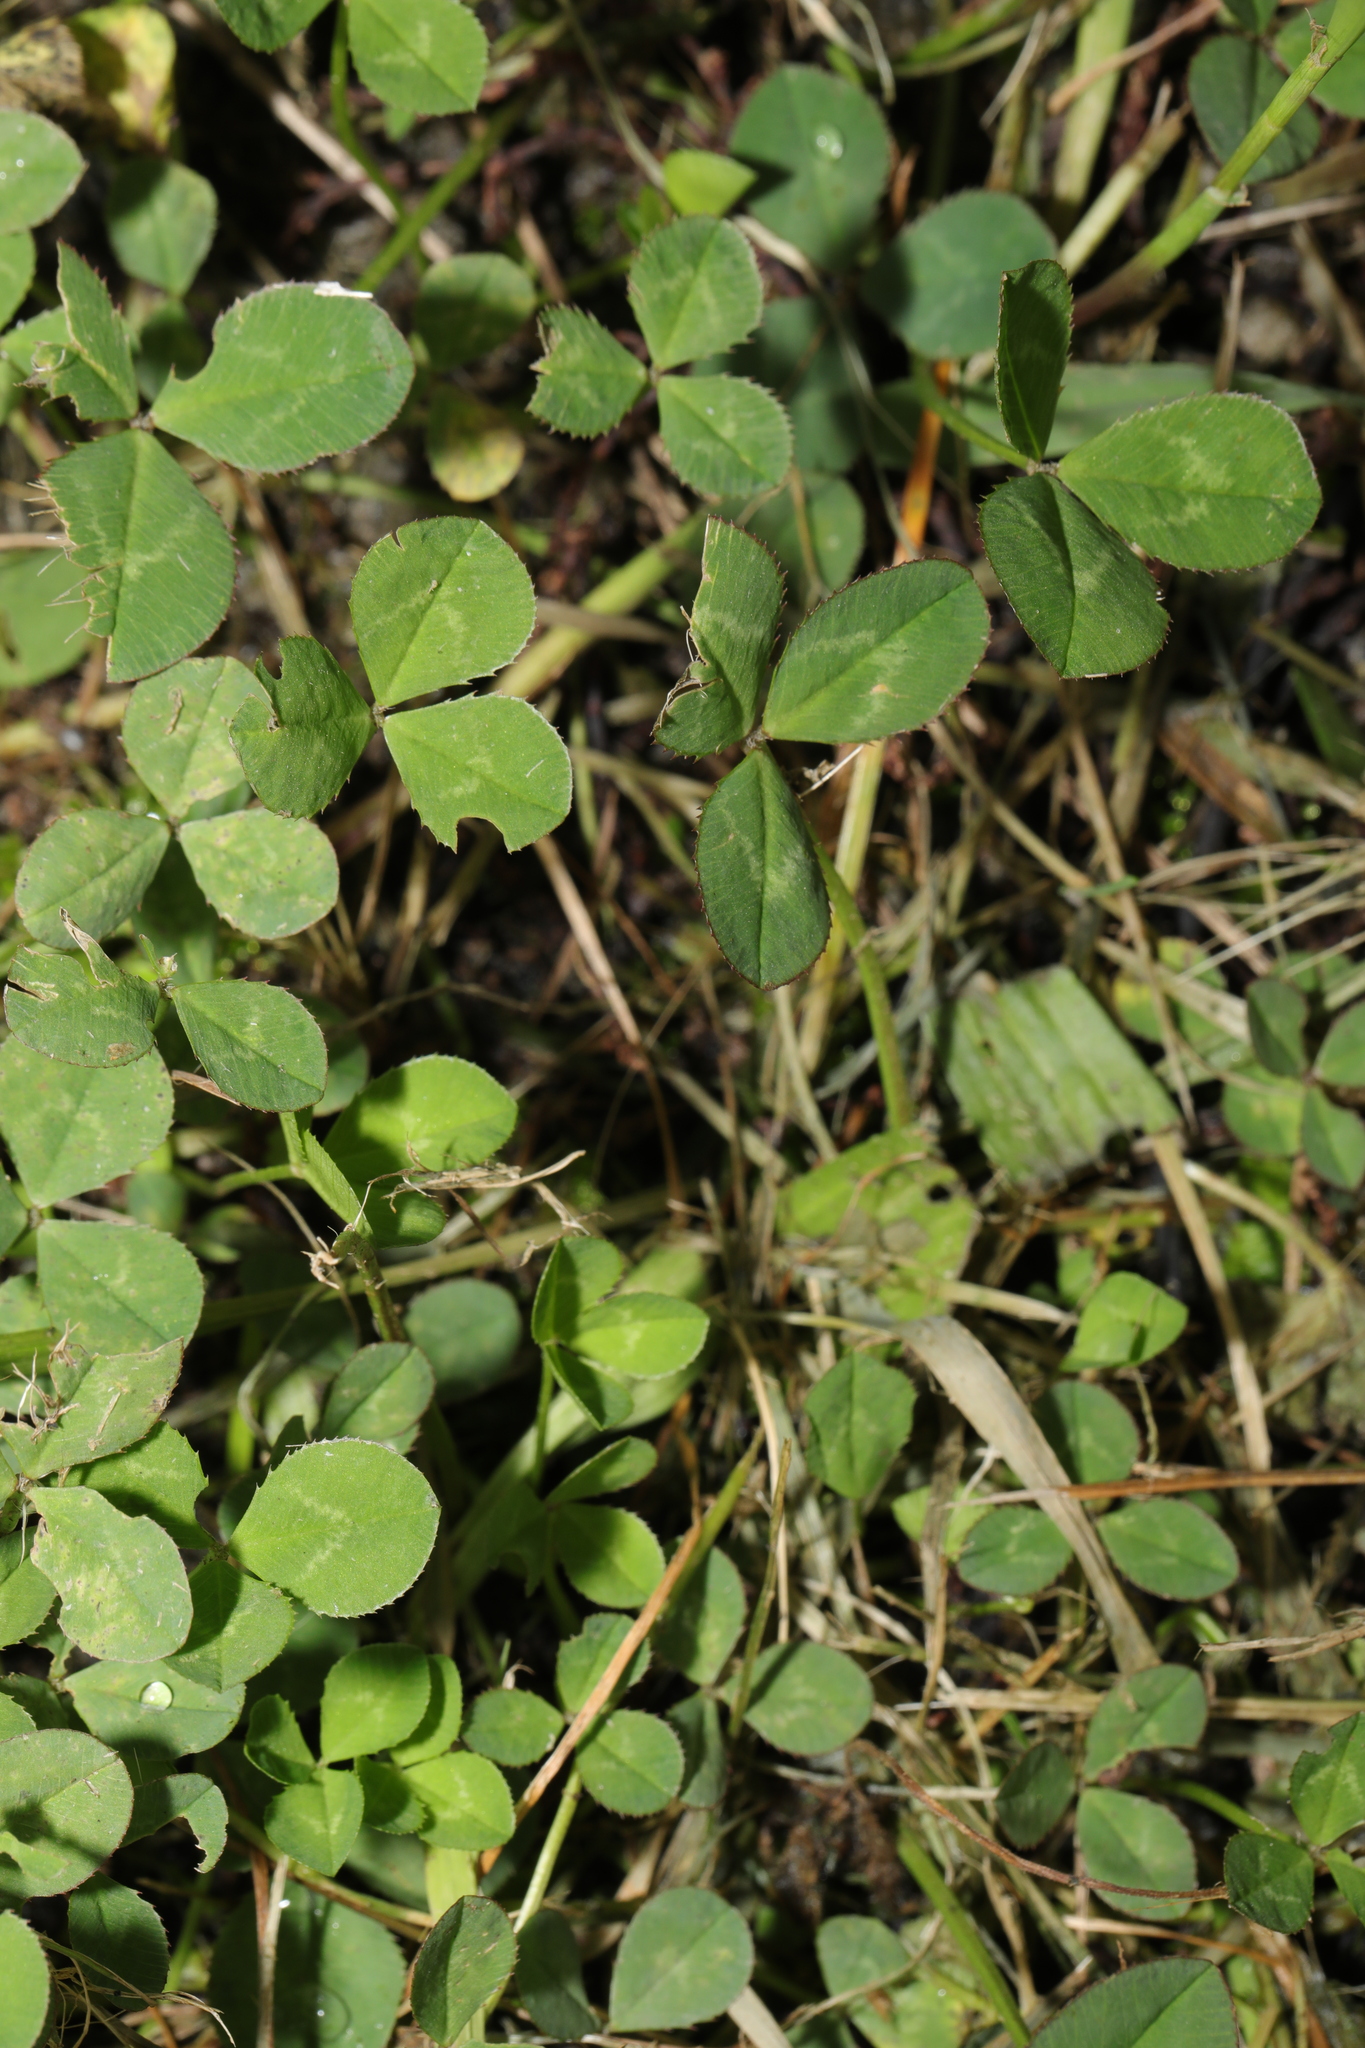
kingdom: Plantae
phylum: Tracheophyta
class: Magnoliopsida
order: Fabales
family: Fabaceae
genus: Trifolium
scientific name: Trifolium repens
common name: White clover
